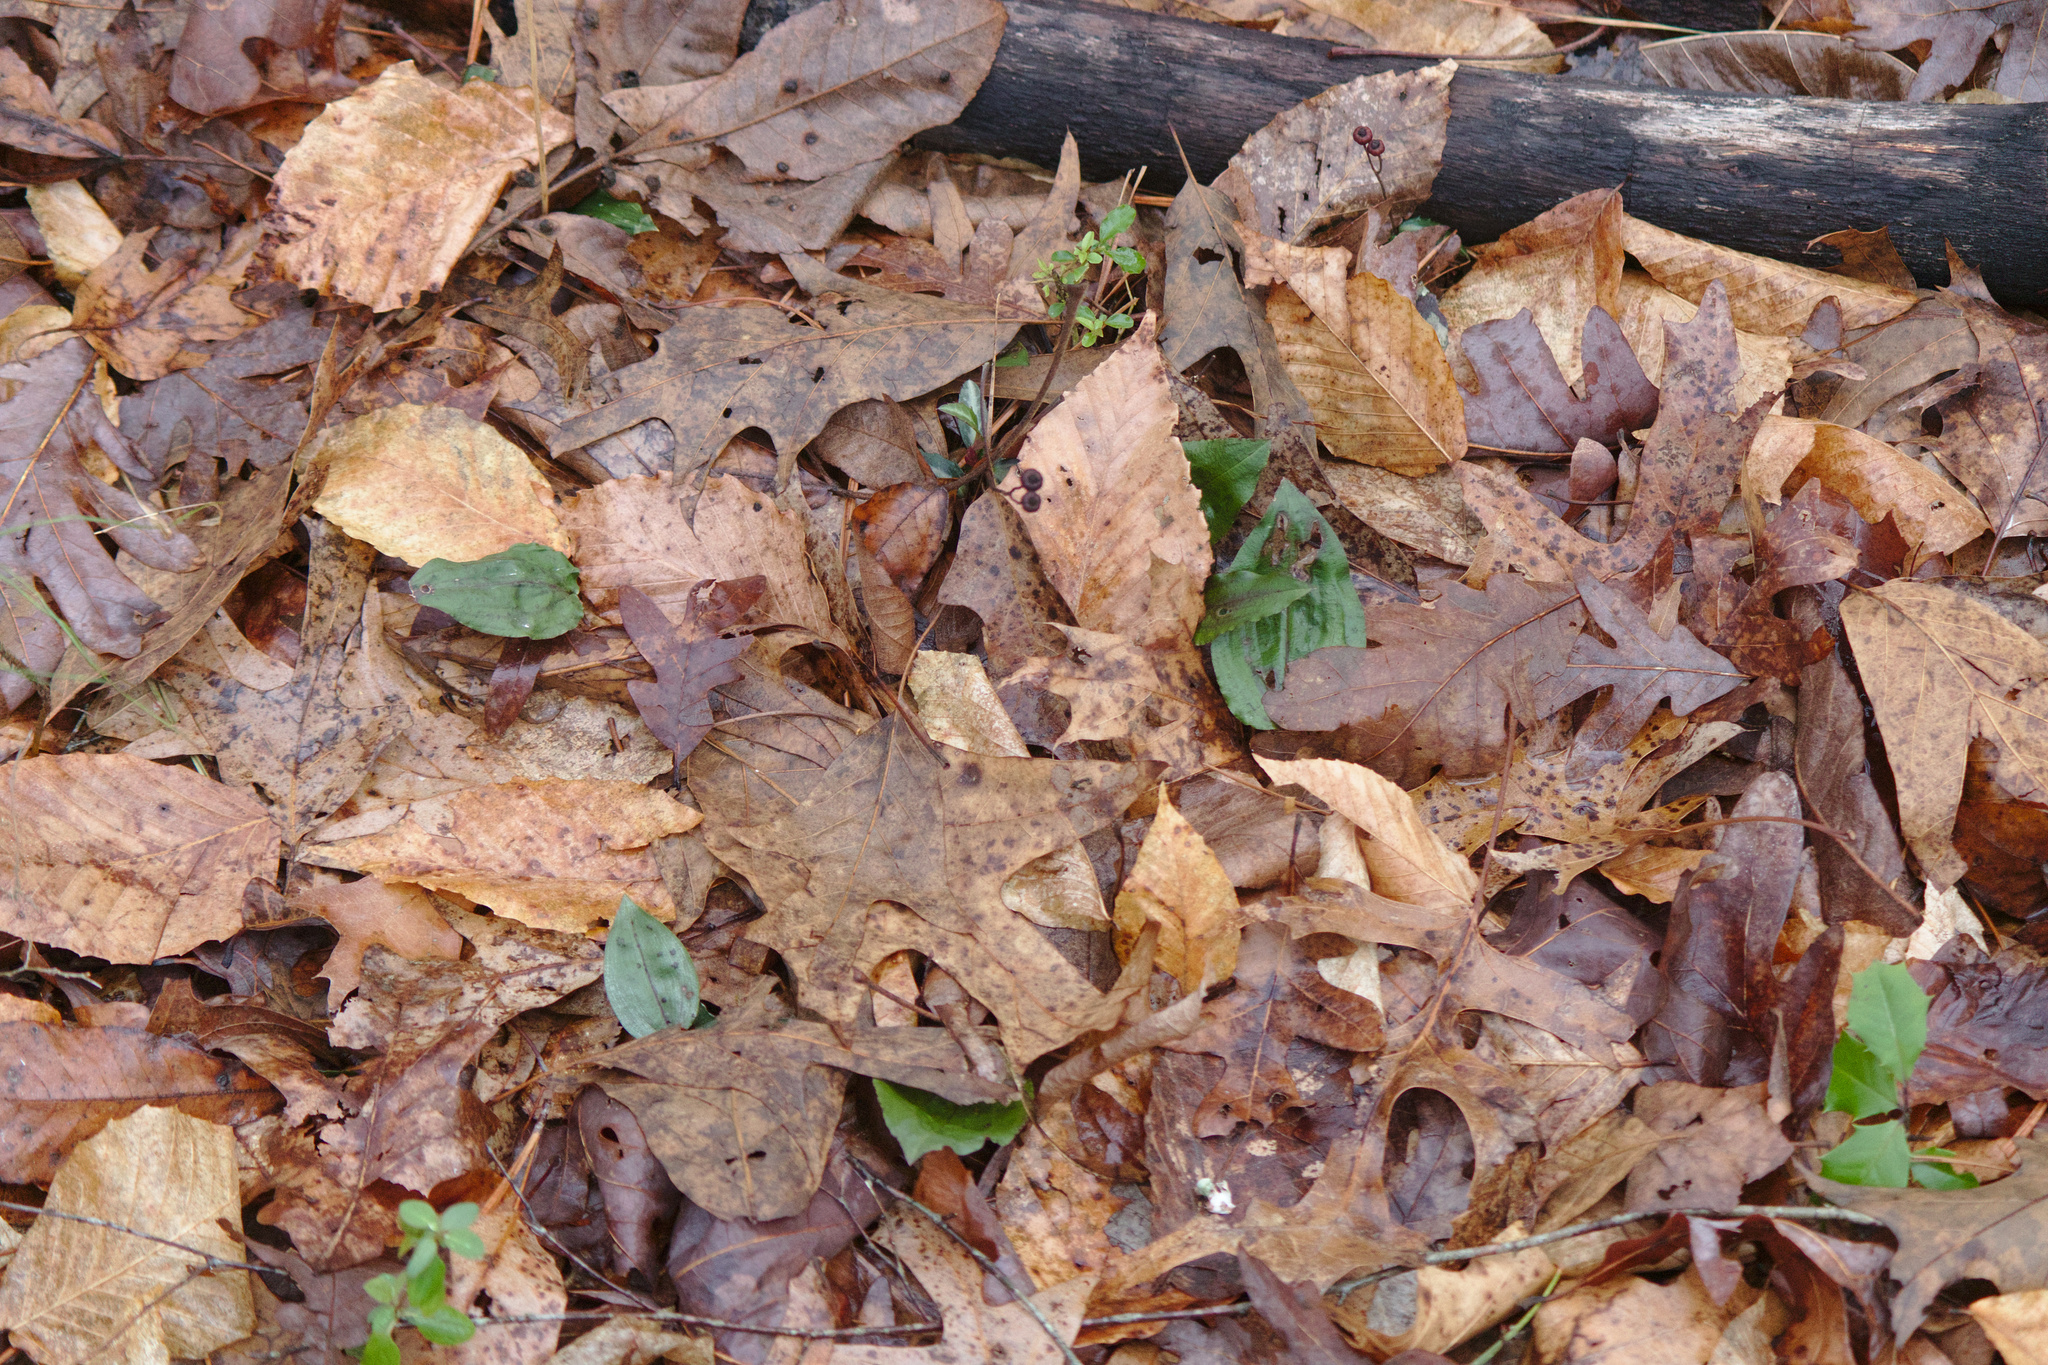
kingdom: Plantae
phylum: Tracheophyta
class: Liliopsida
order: Asparagales
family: Orchidaceae
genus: Tipularia
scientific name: Tipularia discolor
